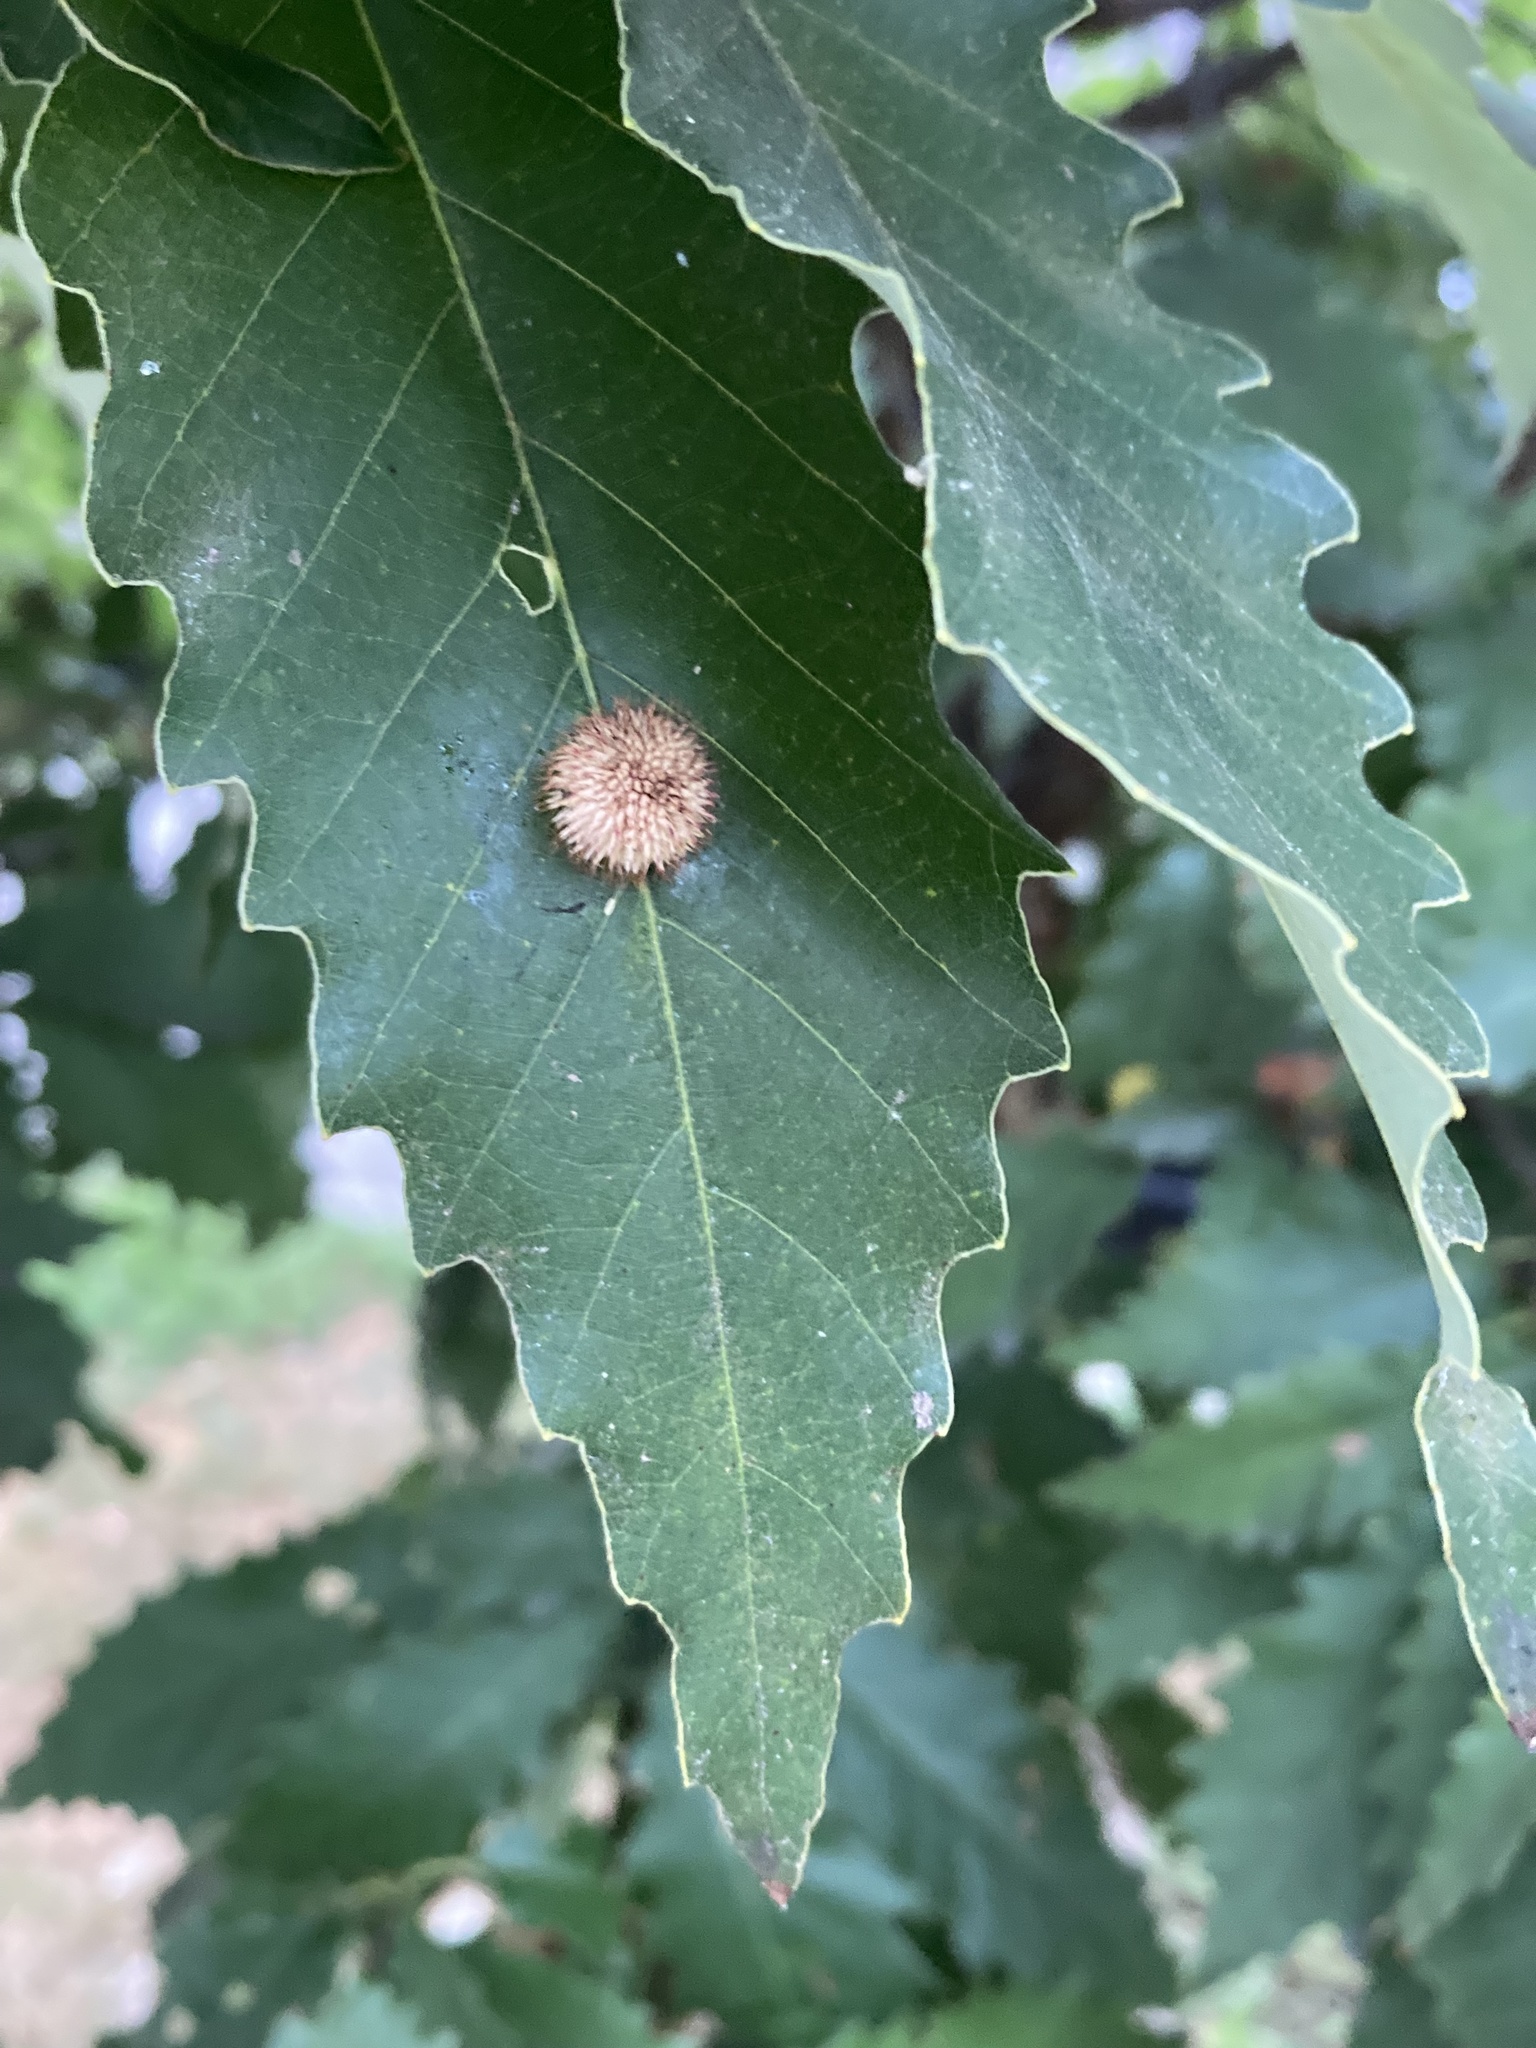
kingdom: Animalia
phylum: Arthropoda
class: Insecta
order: Hymenoptera
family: Cynipidae
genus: Acraspis
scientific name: Acraspis
